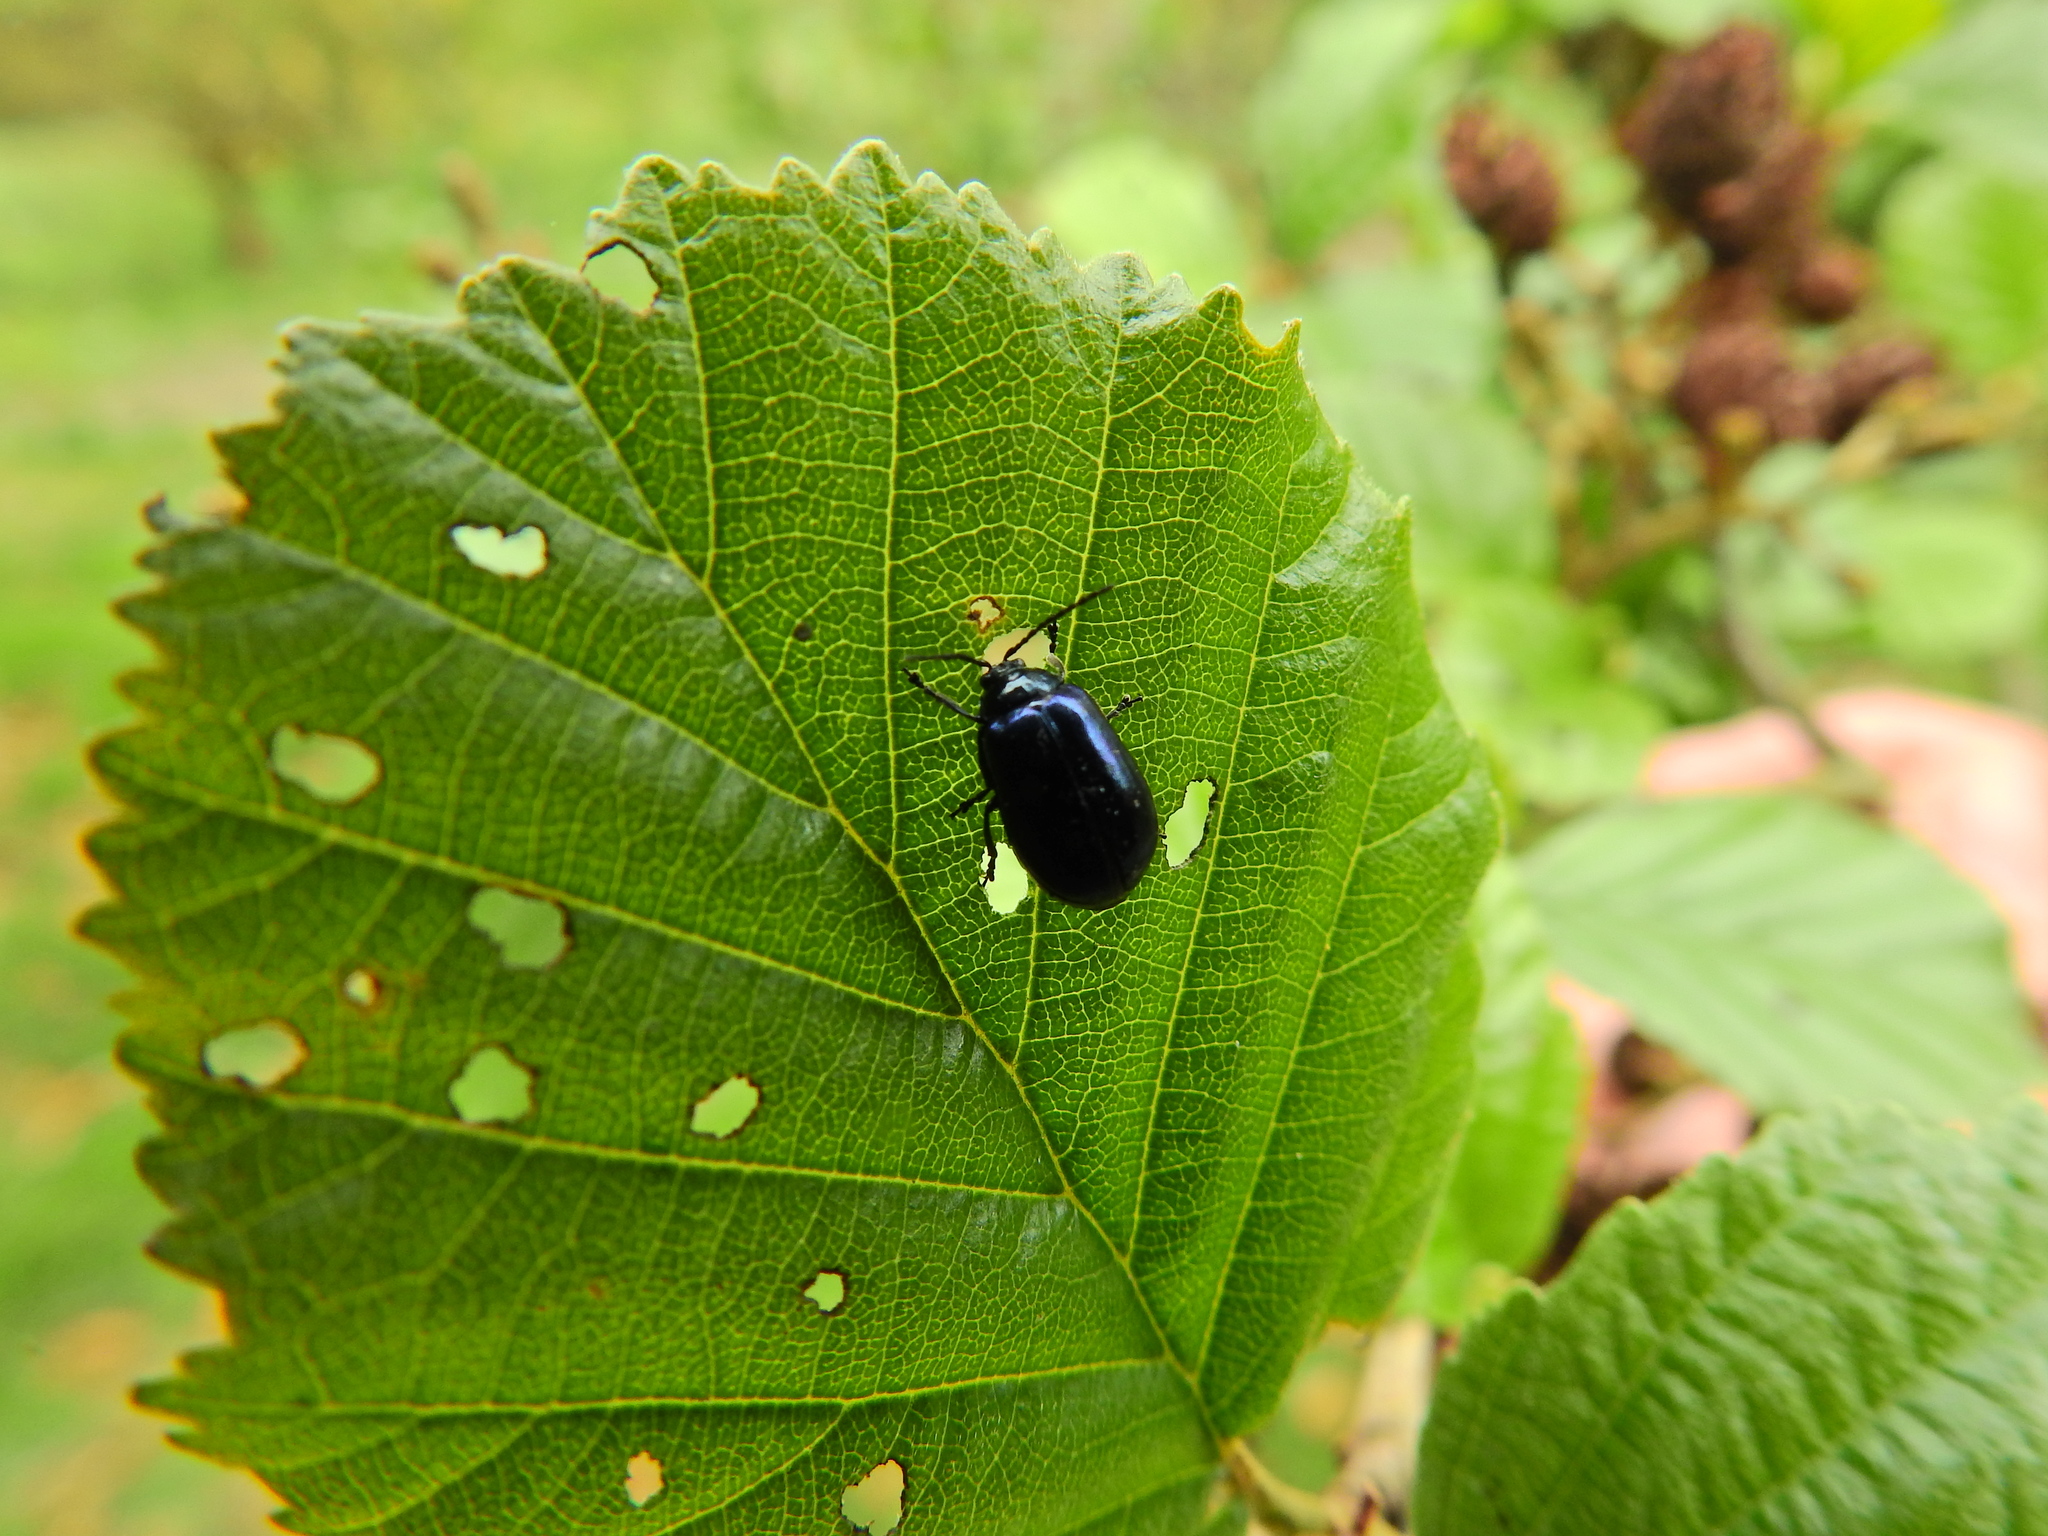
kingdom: Animalia
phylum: Arthropoda
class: Insecta
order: Coleoptera
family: Chrysomelidae
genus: Agelastica
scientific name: Agelastica alni
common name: Alder leaf beetle
